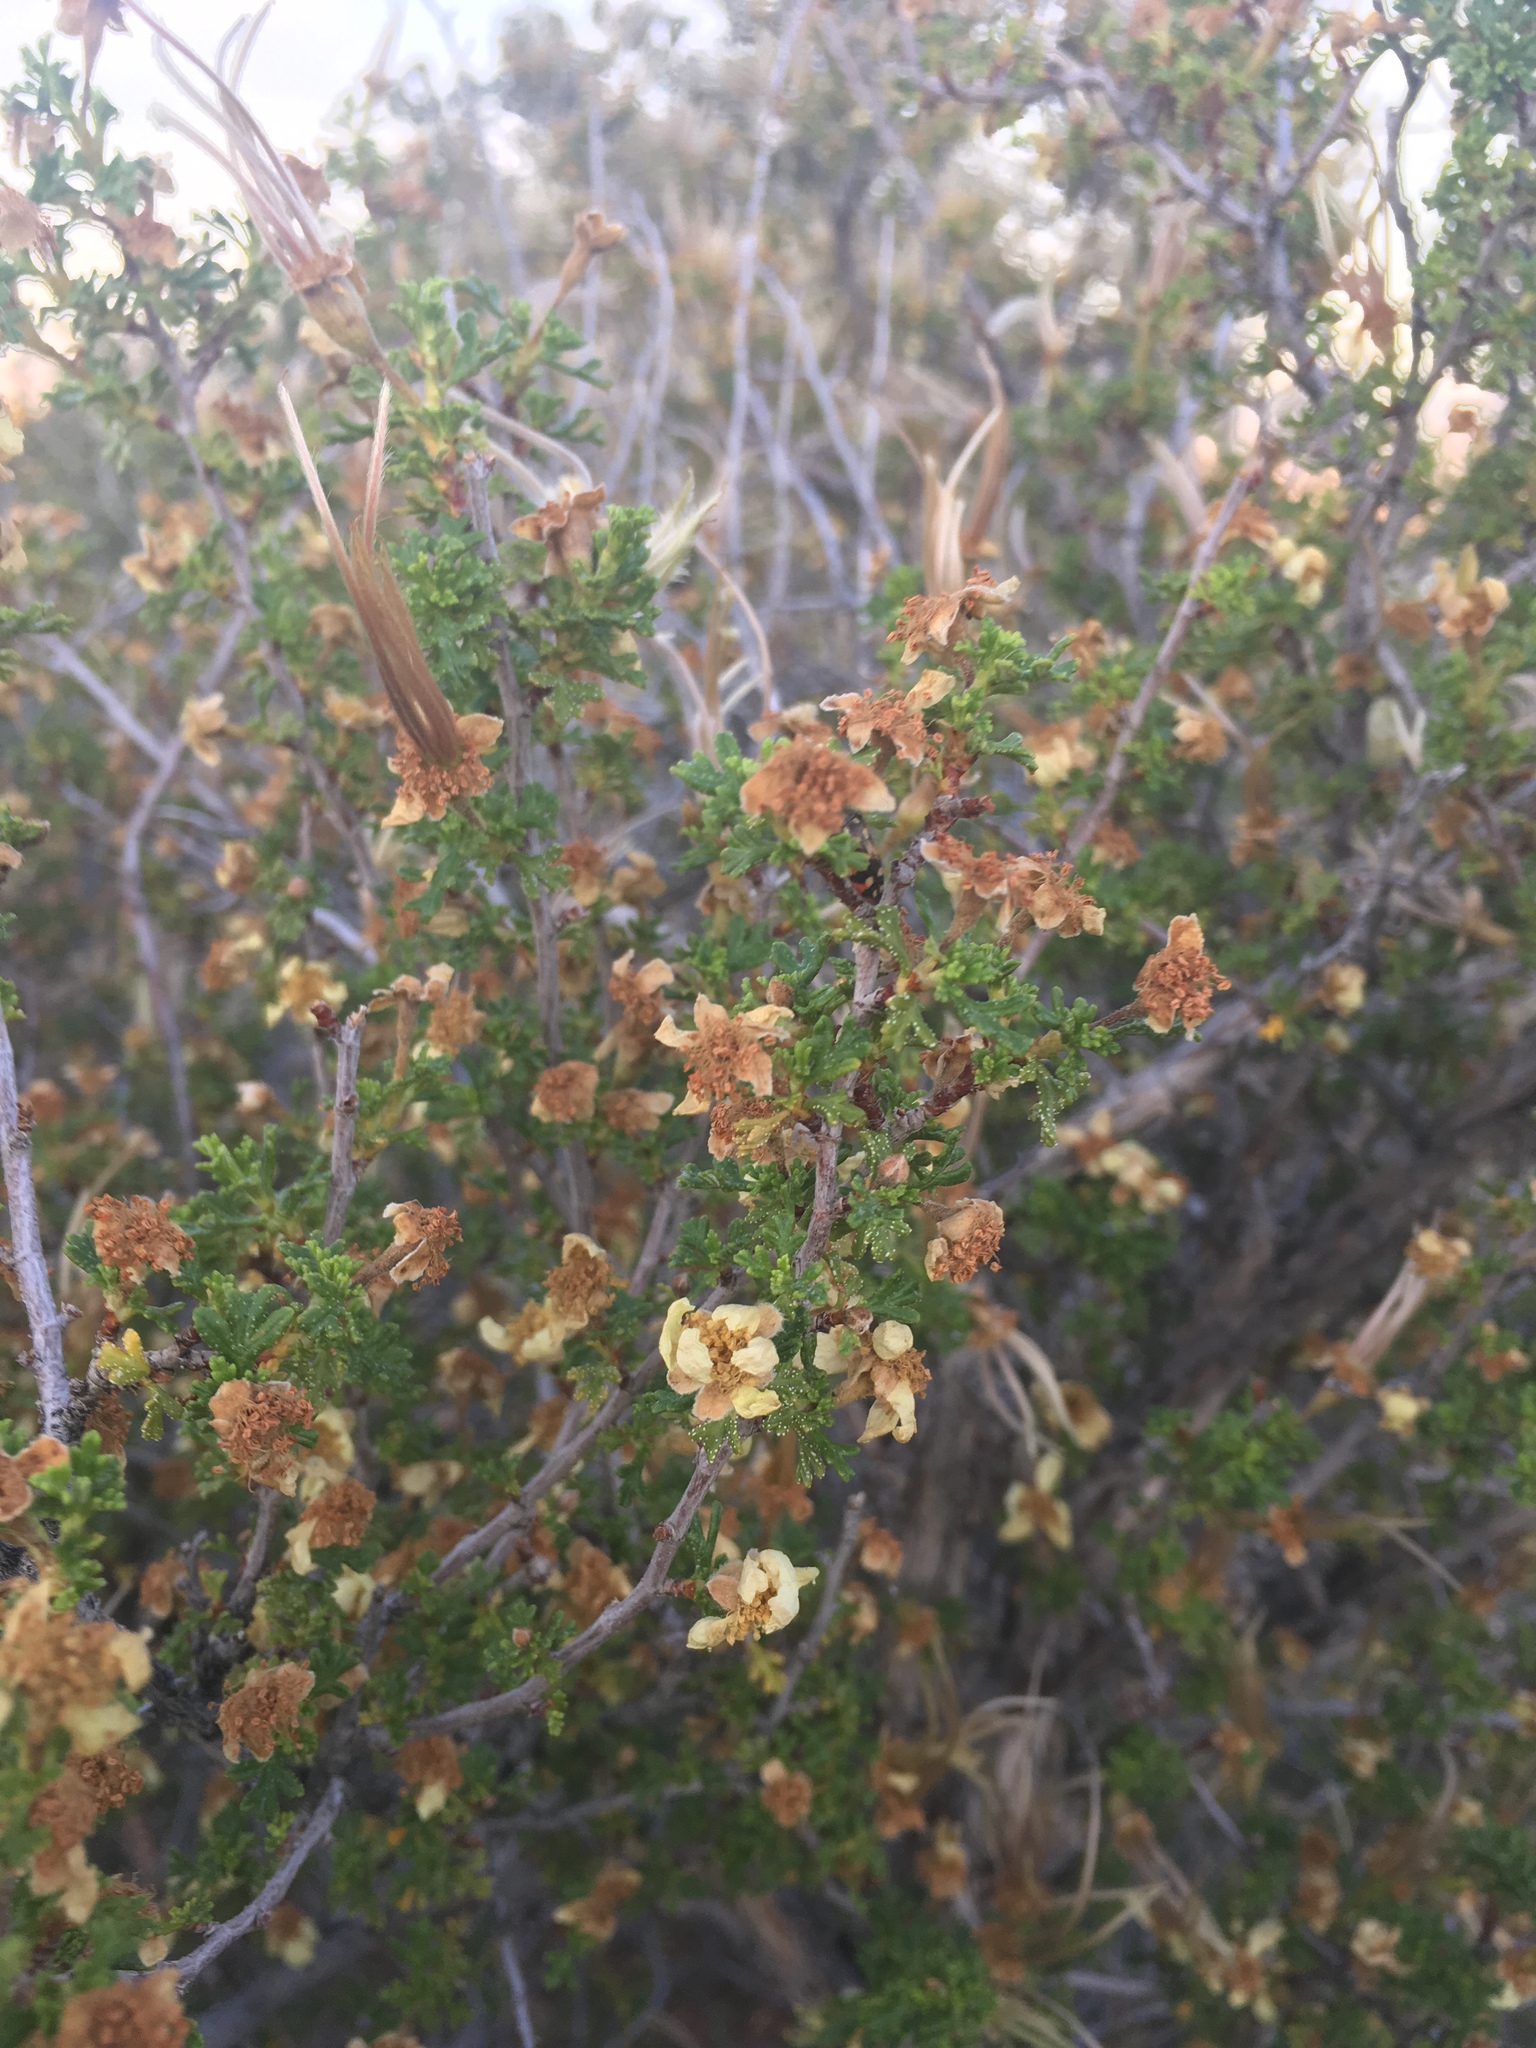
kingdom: Plantae
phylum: Tracheophyta
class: Magnoliopsida
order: Rosales
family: Rosaceae
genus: Purshia
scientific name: Purshia stansburiana
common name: Stansbury's cliffrose
